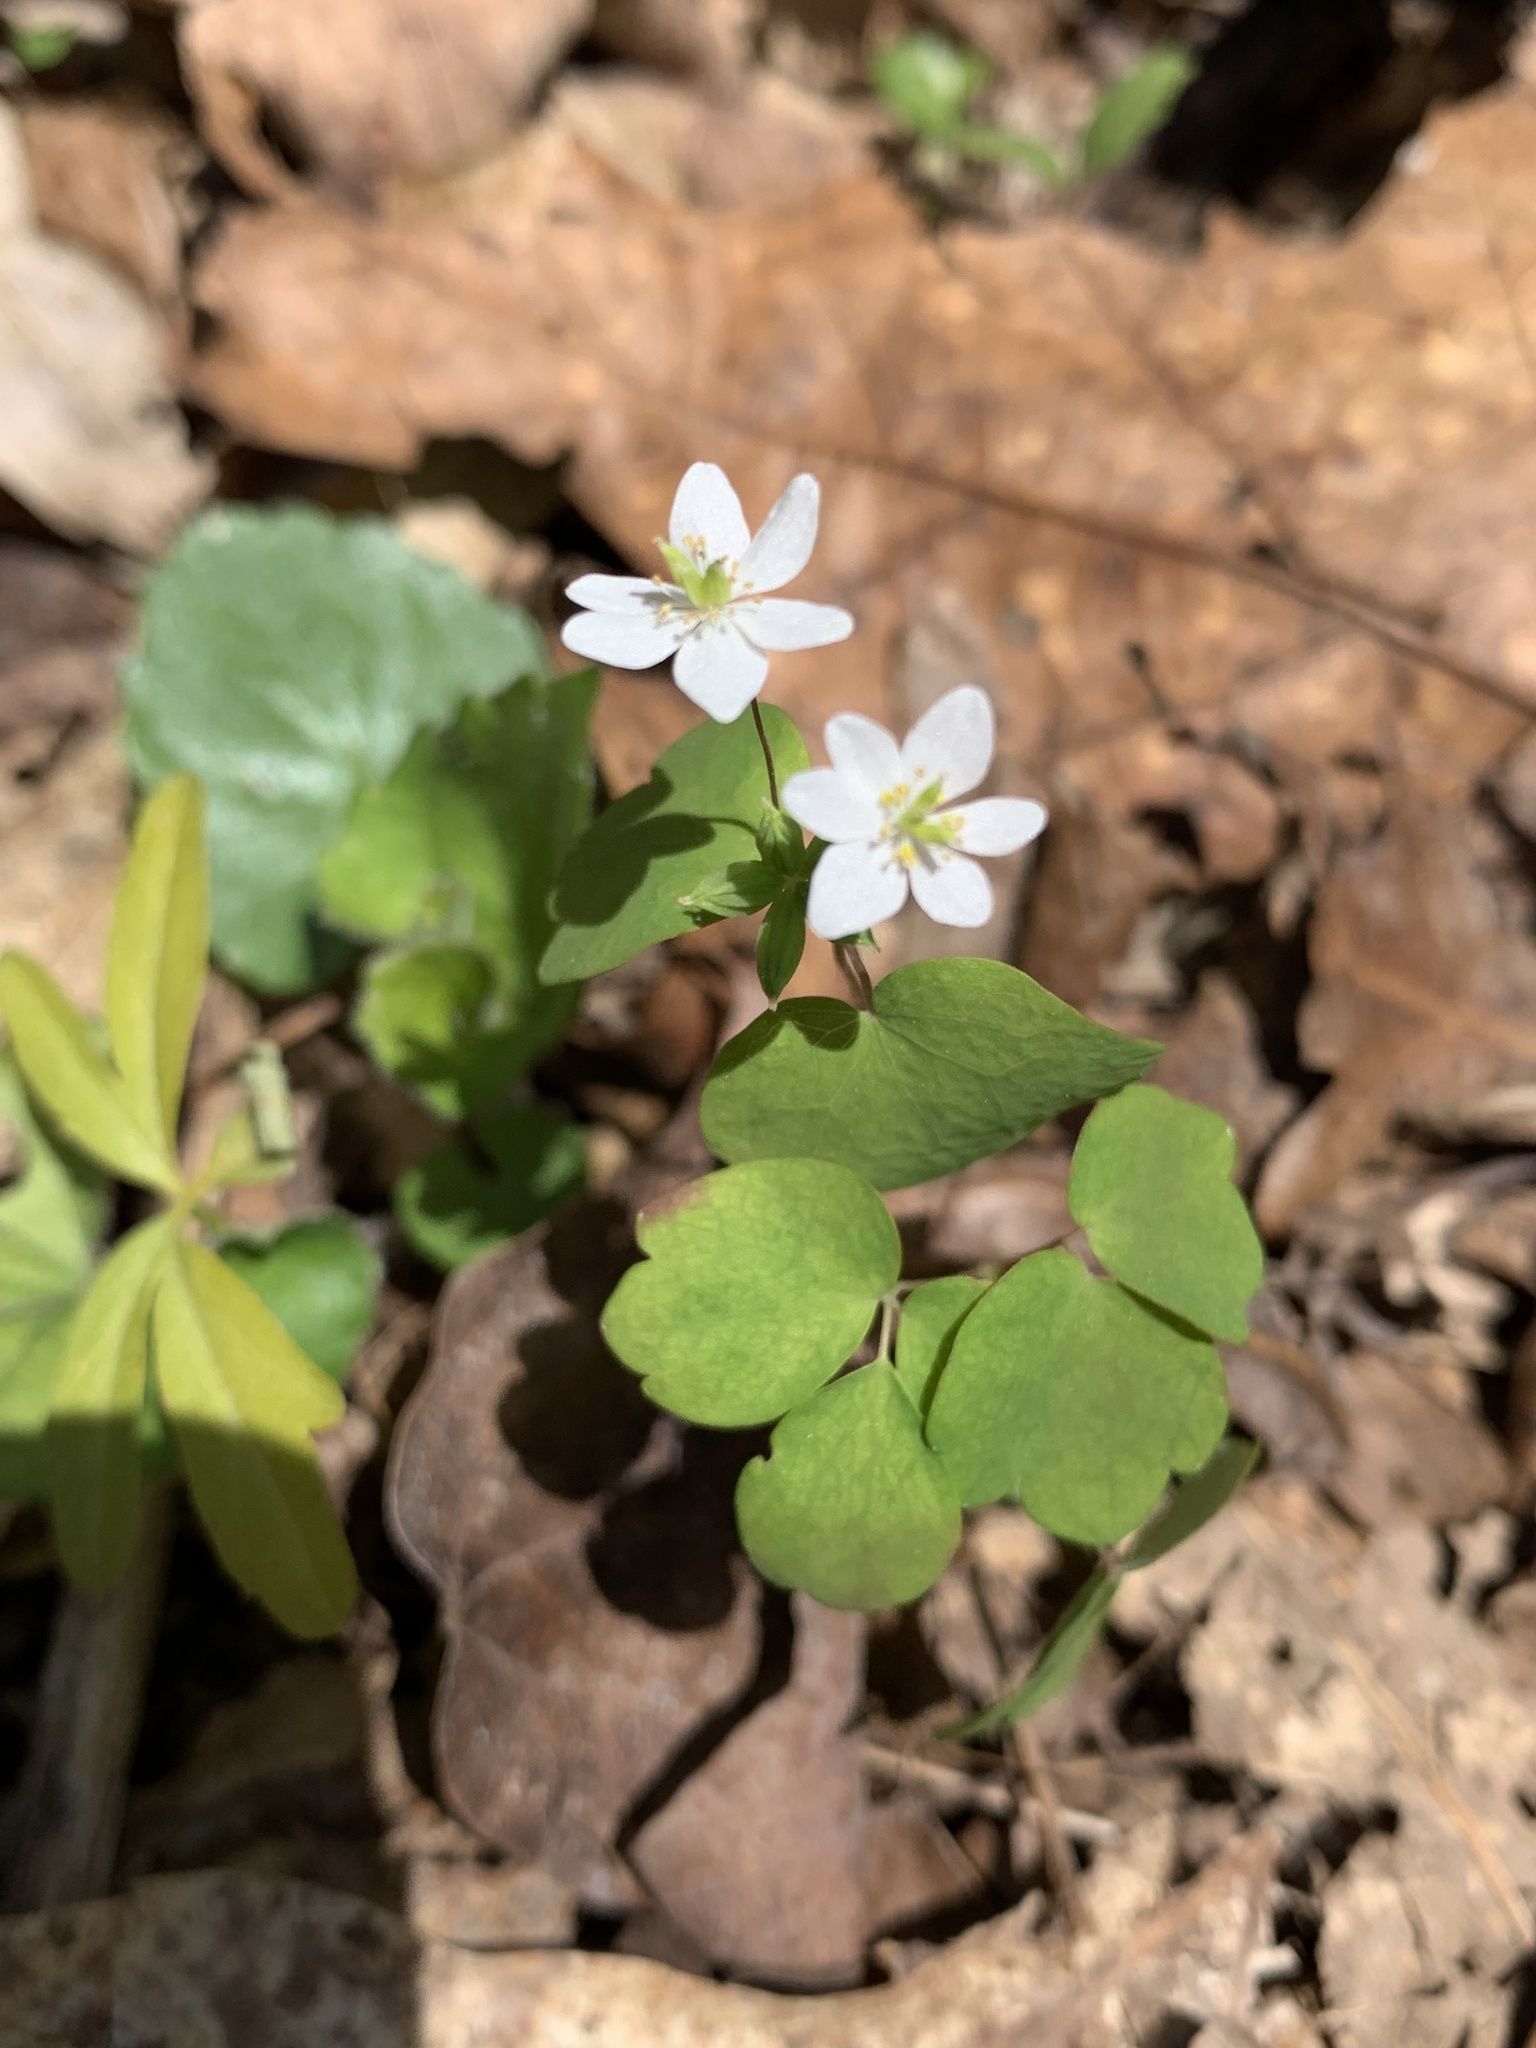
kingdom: Plantae
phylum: Tracheophyta
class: Magnoliopsida
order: Ranunculales
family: Ranunculaceae
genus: Thalictrum
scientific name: Thalictrum thalictroides
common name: Rue-anemone
